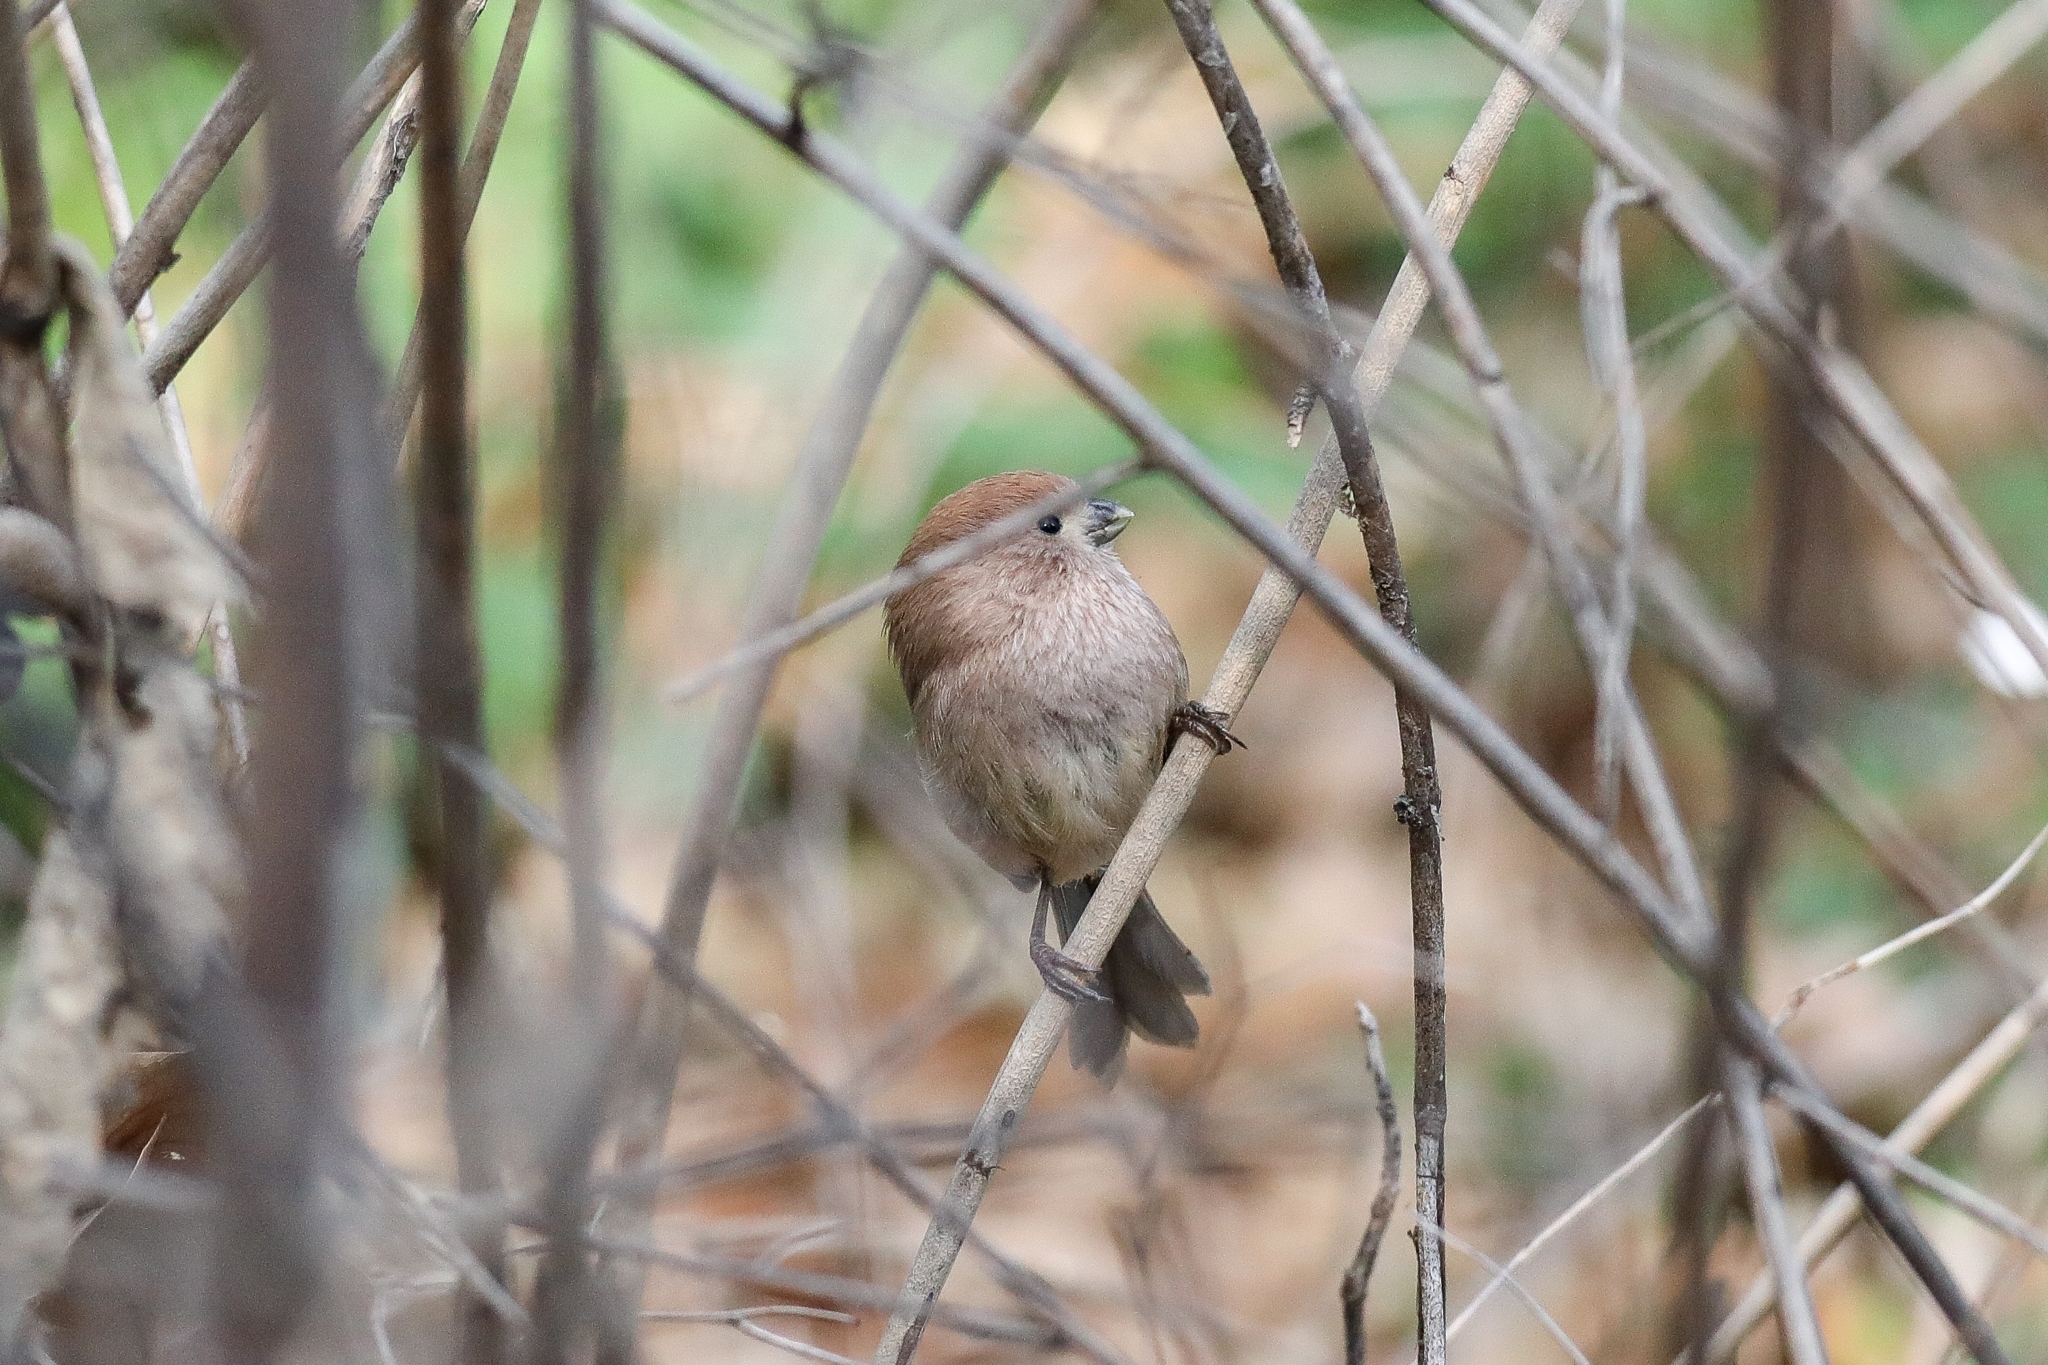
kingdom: Animalia
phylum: Chordata
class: Aves
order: Passeriformes
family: Sylviidae
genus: Sinosuthora
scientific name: Sinosuthora webbiana
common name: Vinous-throated parrotbill
